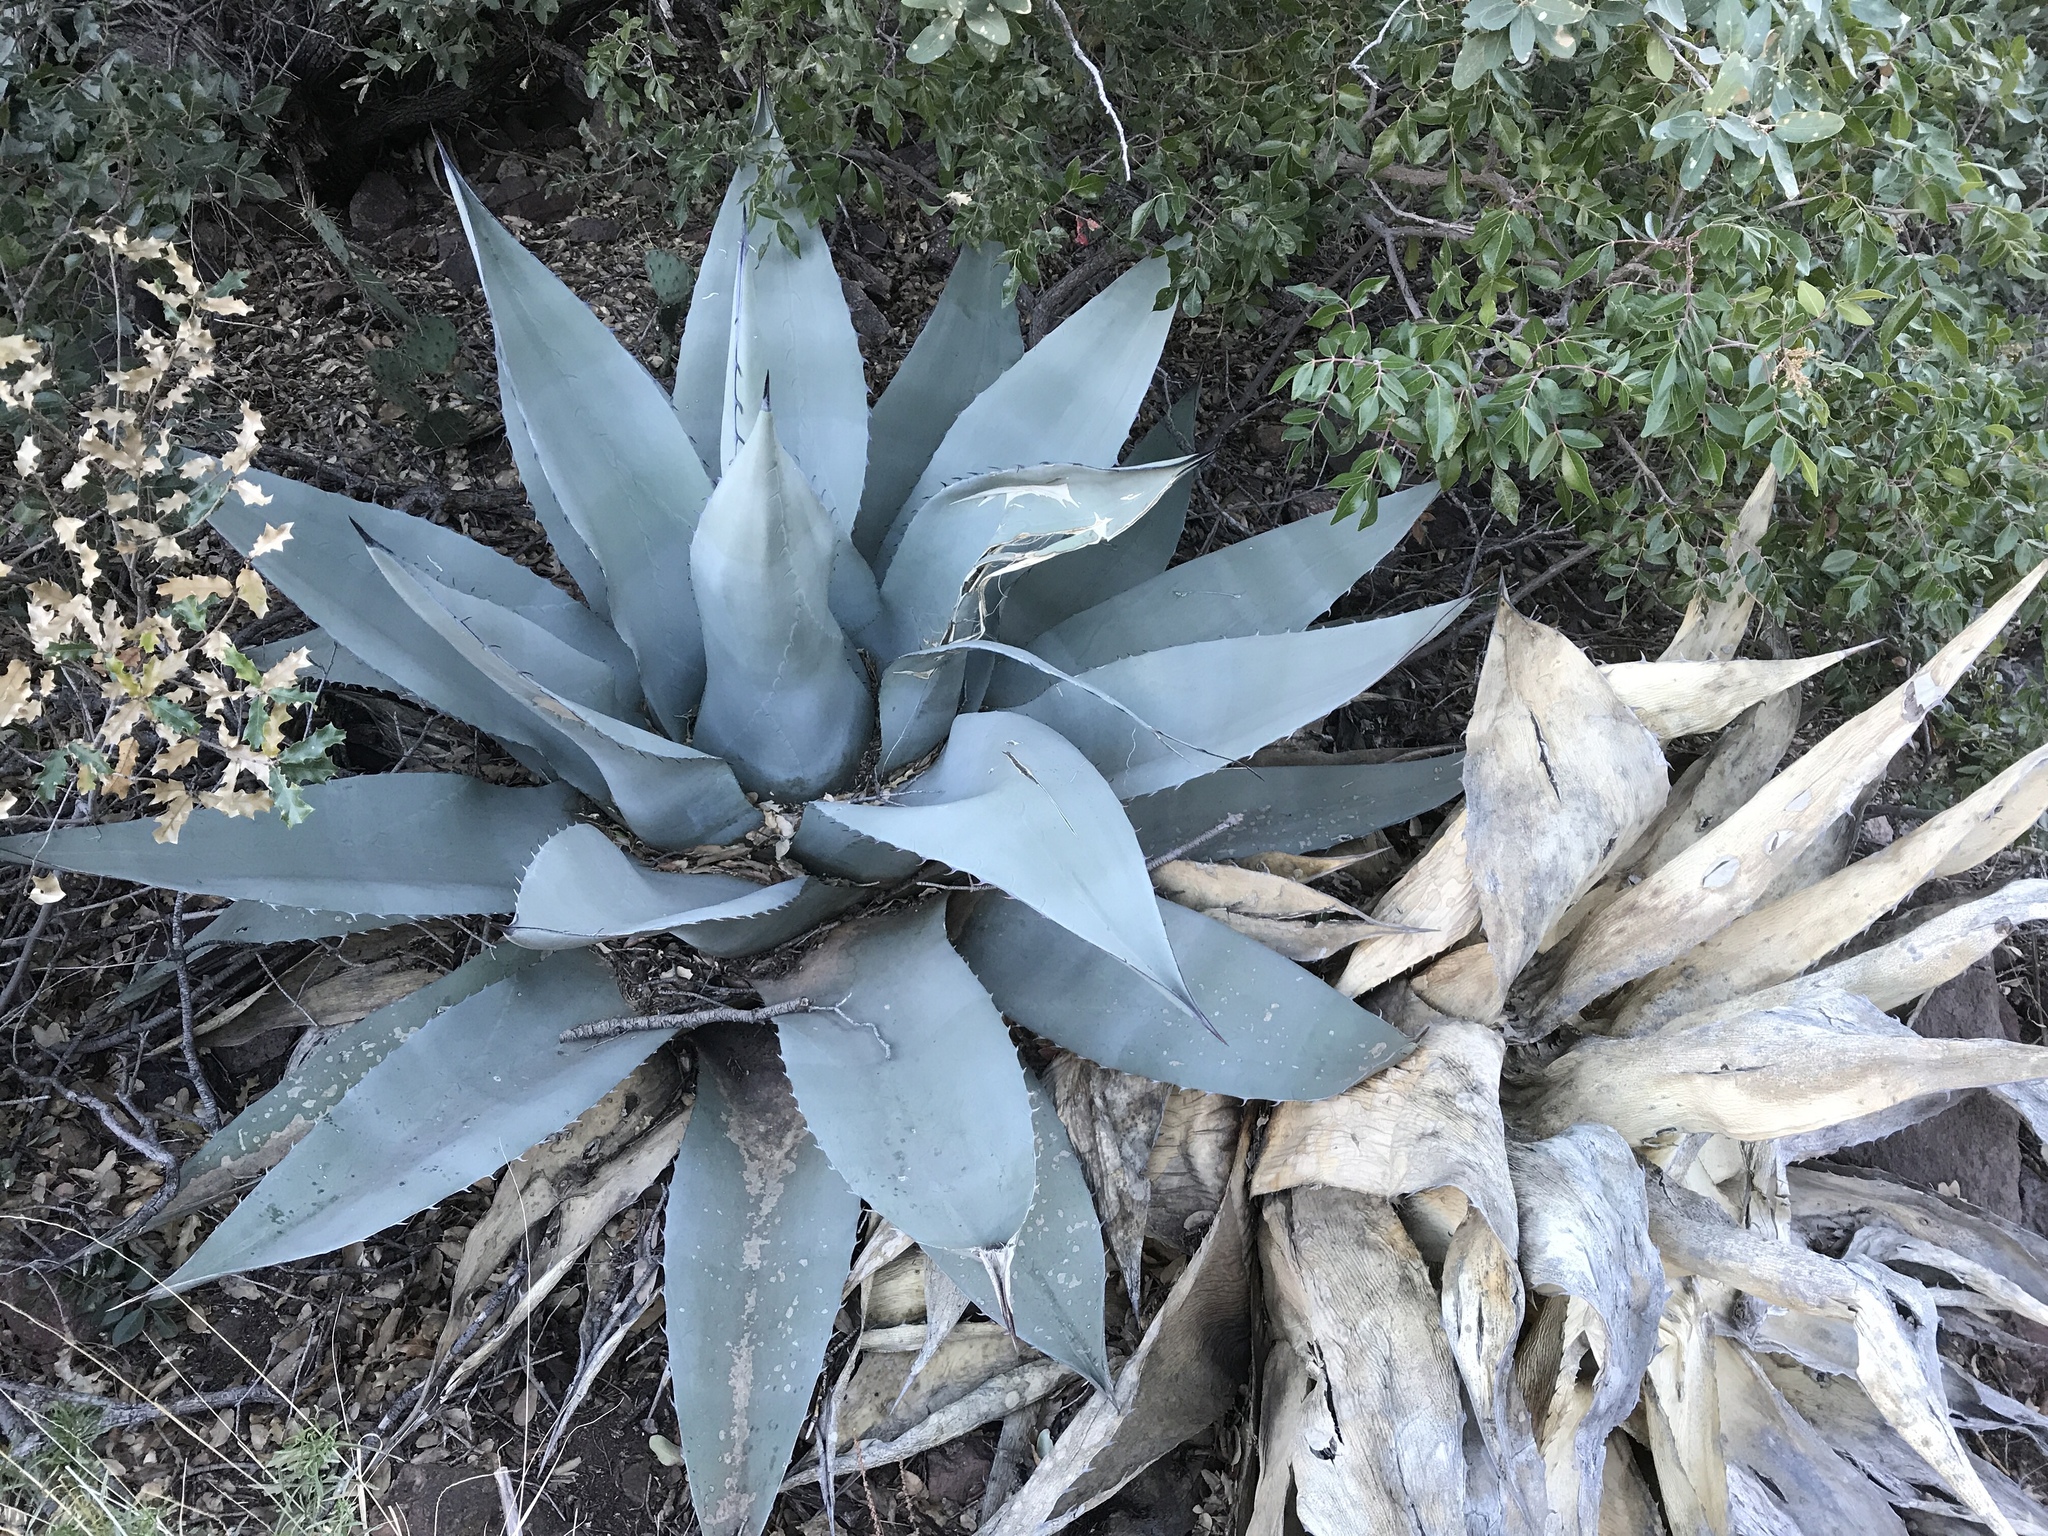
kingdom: Plantae
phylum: Tracheophyta
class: Liliopsida
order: Asparagales
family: Asparagaceae
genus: Agave
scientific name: Agave havardiana
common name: Havard agave
